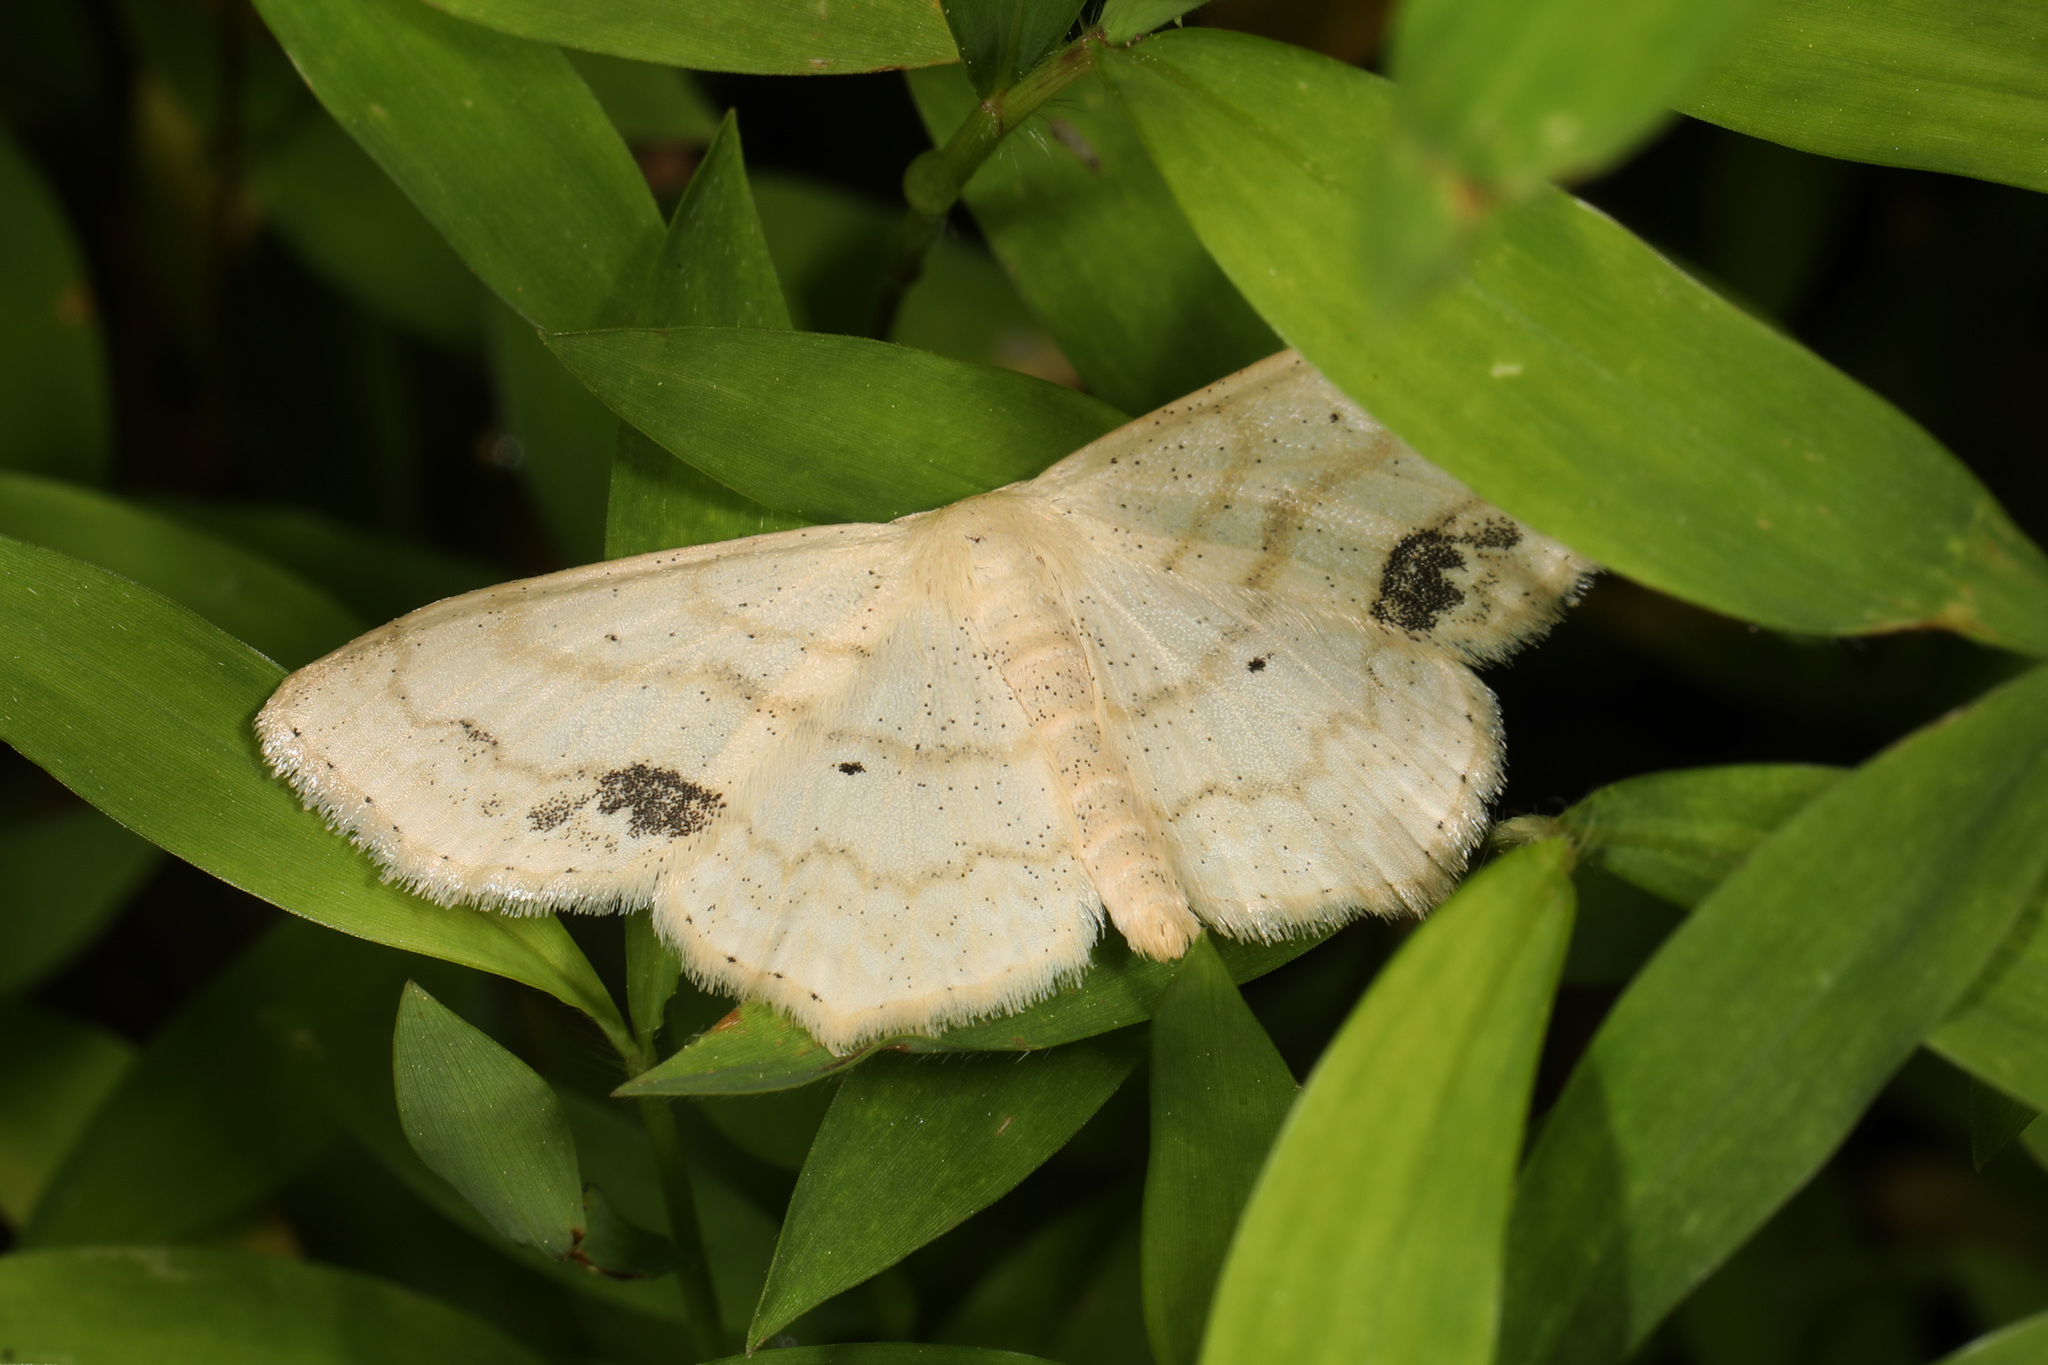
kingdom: Animalia
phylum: Arthropoda
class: Insecta
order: Lepidoptera
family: Geometridae
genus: Scopula
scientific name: Scopula limboundata
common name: Large lace border
